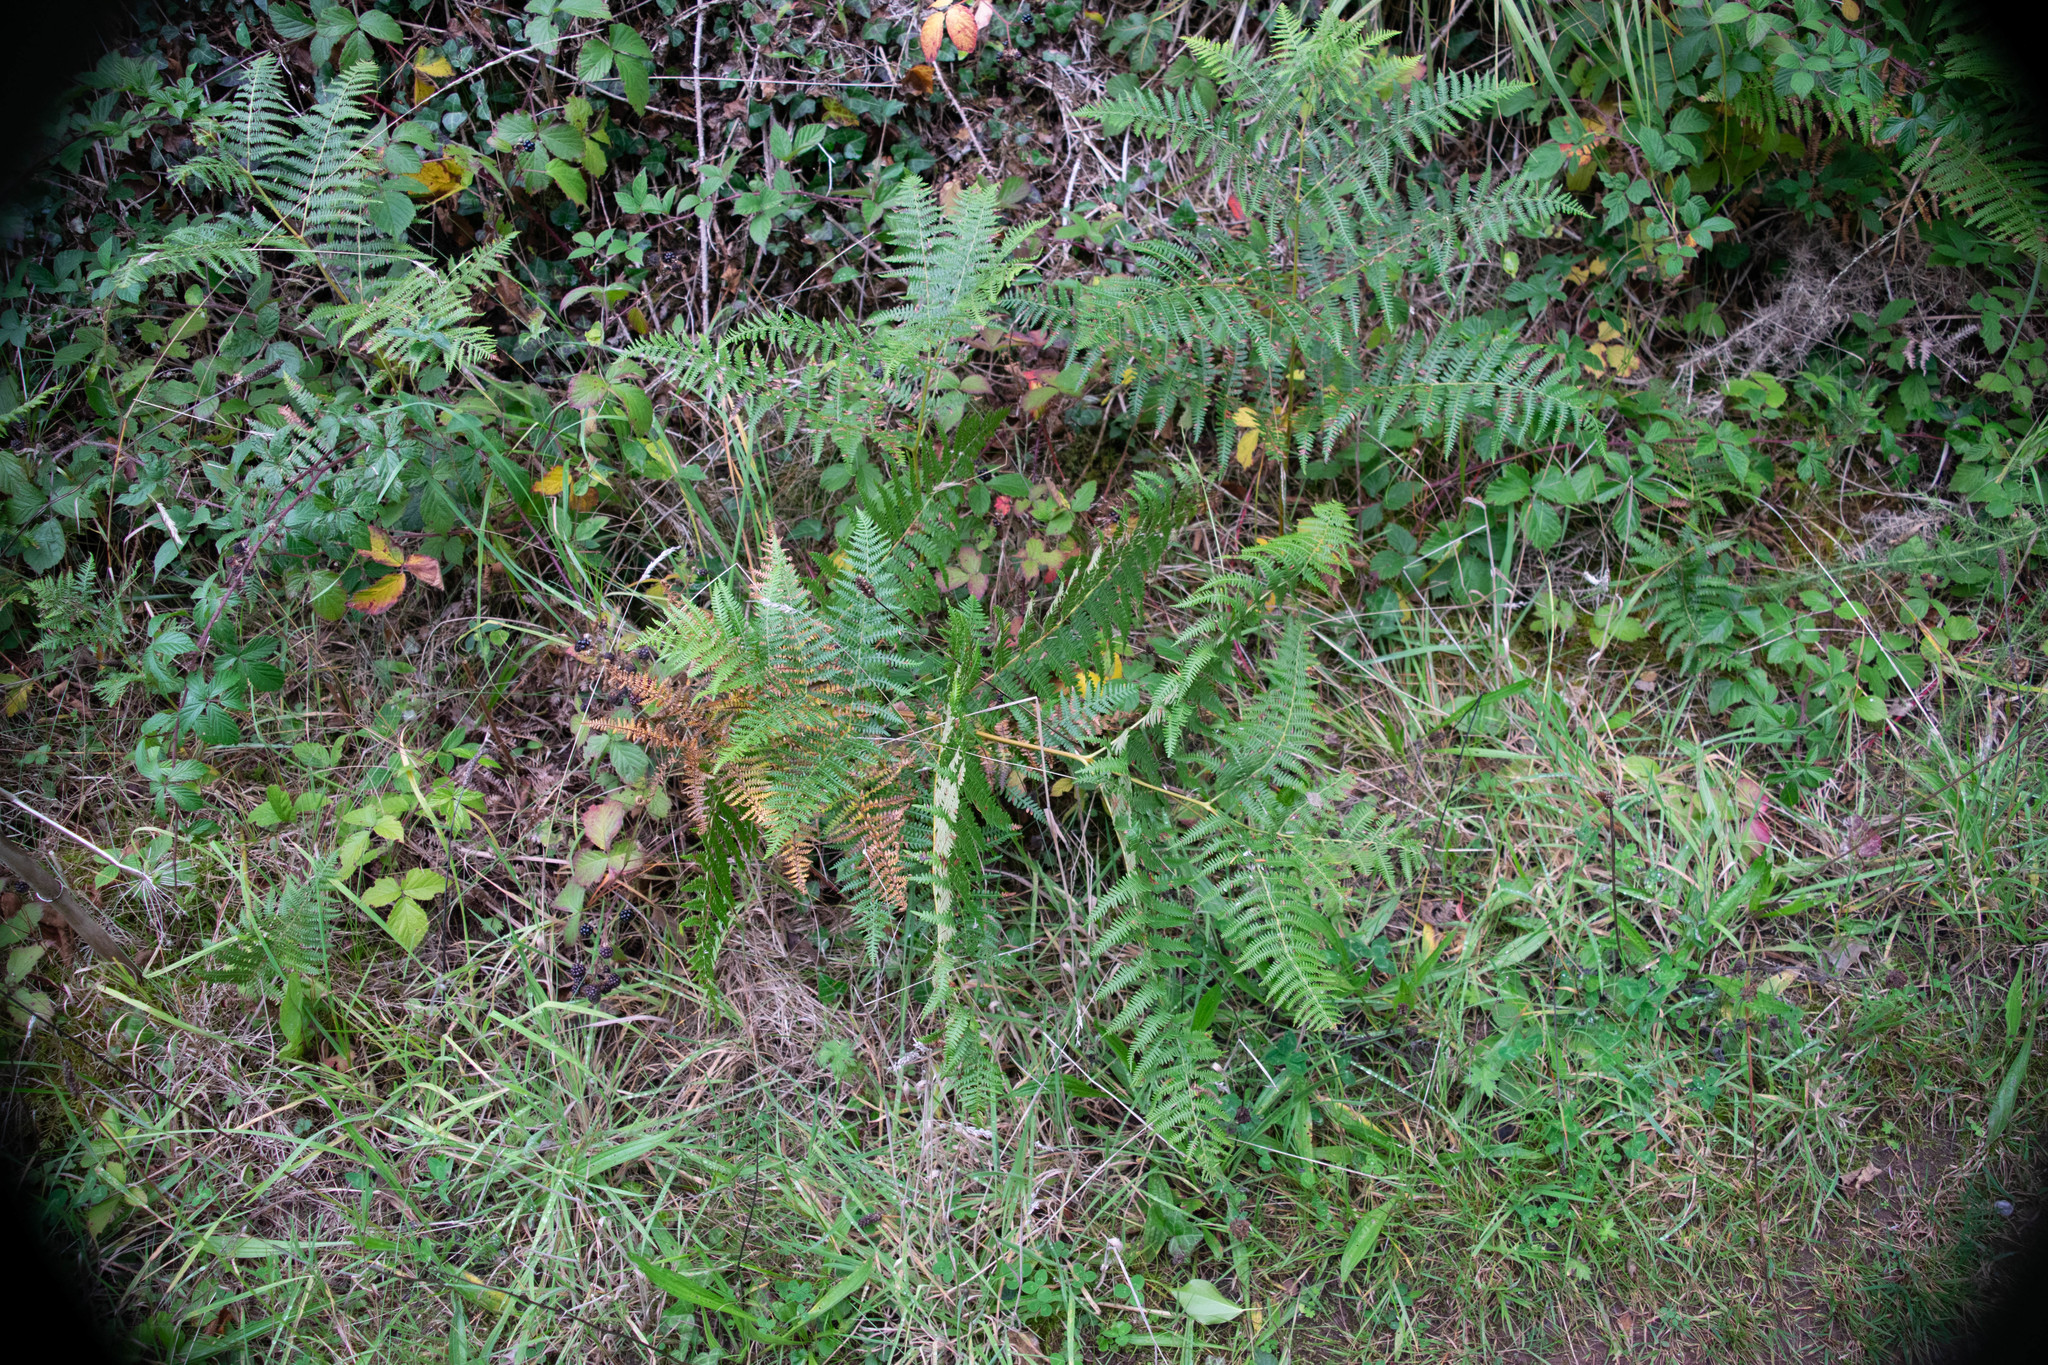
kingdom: Plantae
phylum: Tracheophyta
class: Polypodiopsida
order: Polypodiales
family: Dennstaedtiaceae
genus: Pteridium
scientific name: Pteridium aquilinum
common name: Bracken
